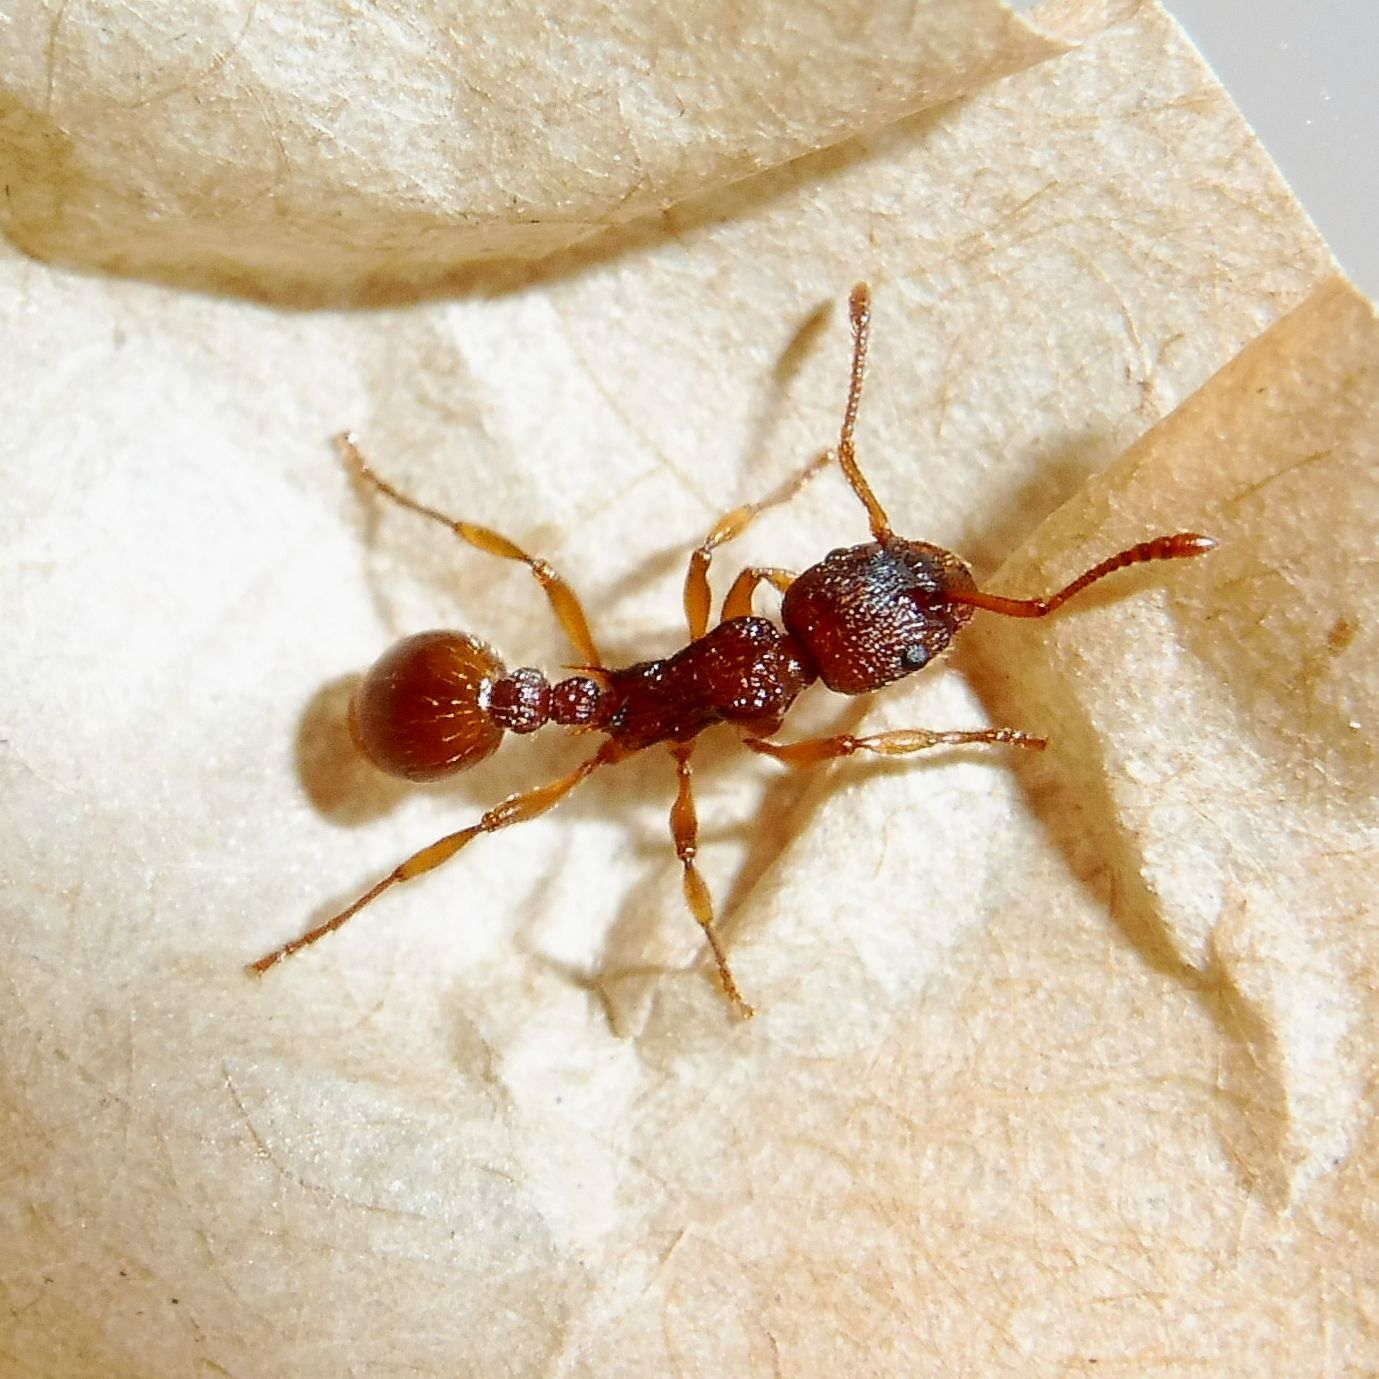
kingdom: Animalia
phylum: Arthropoda
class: Insecta
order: Hymenoptera
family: Formicidae
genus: Myrmica
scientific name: Myrmica ruginodis
